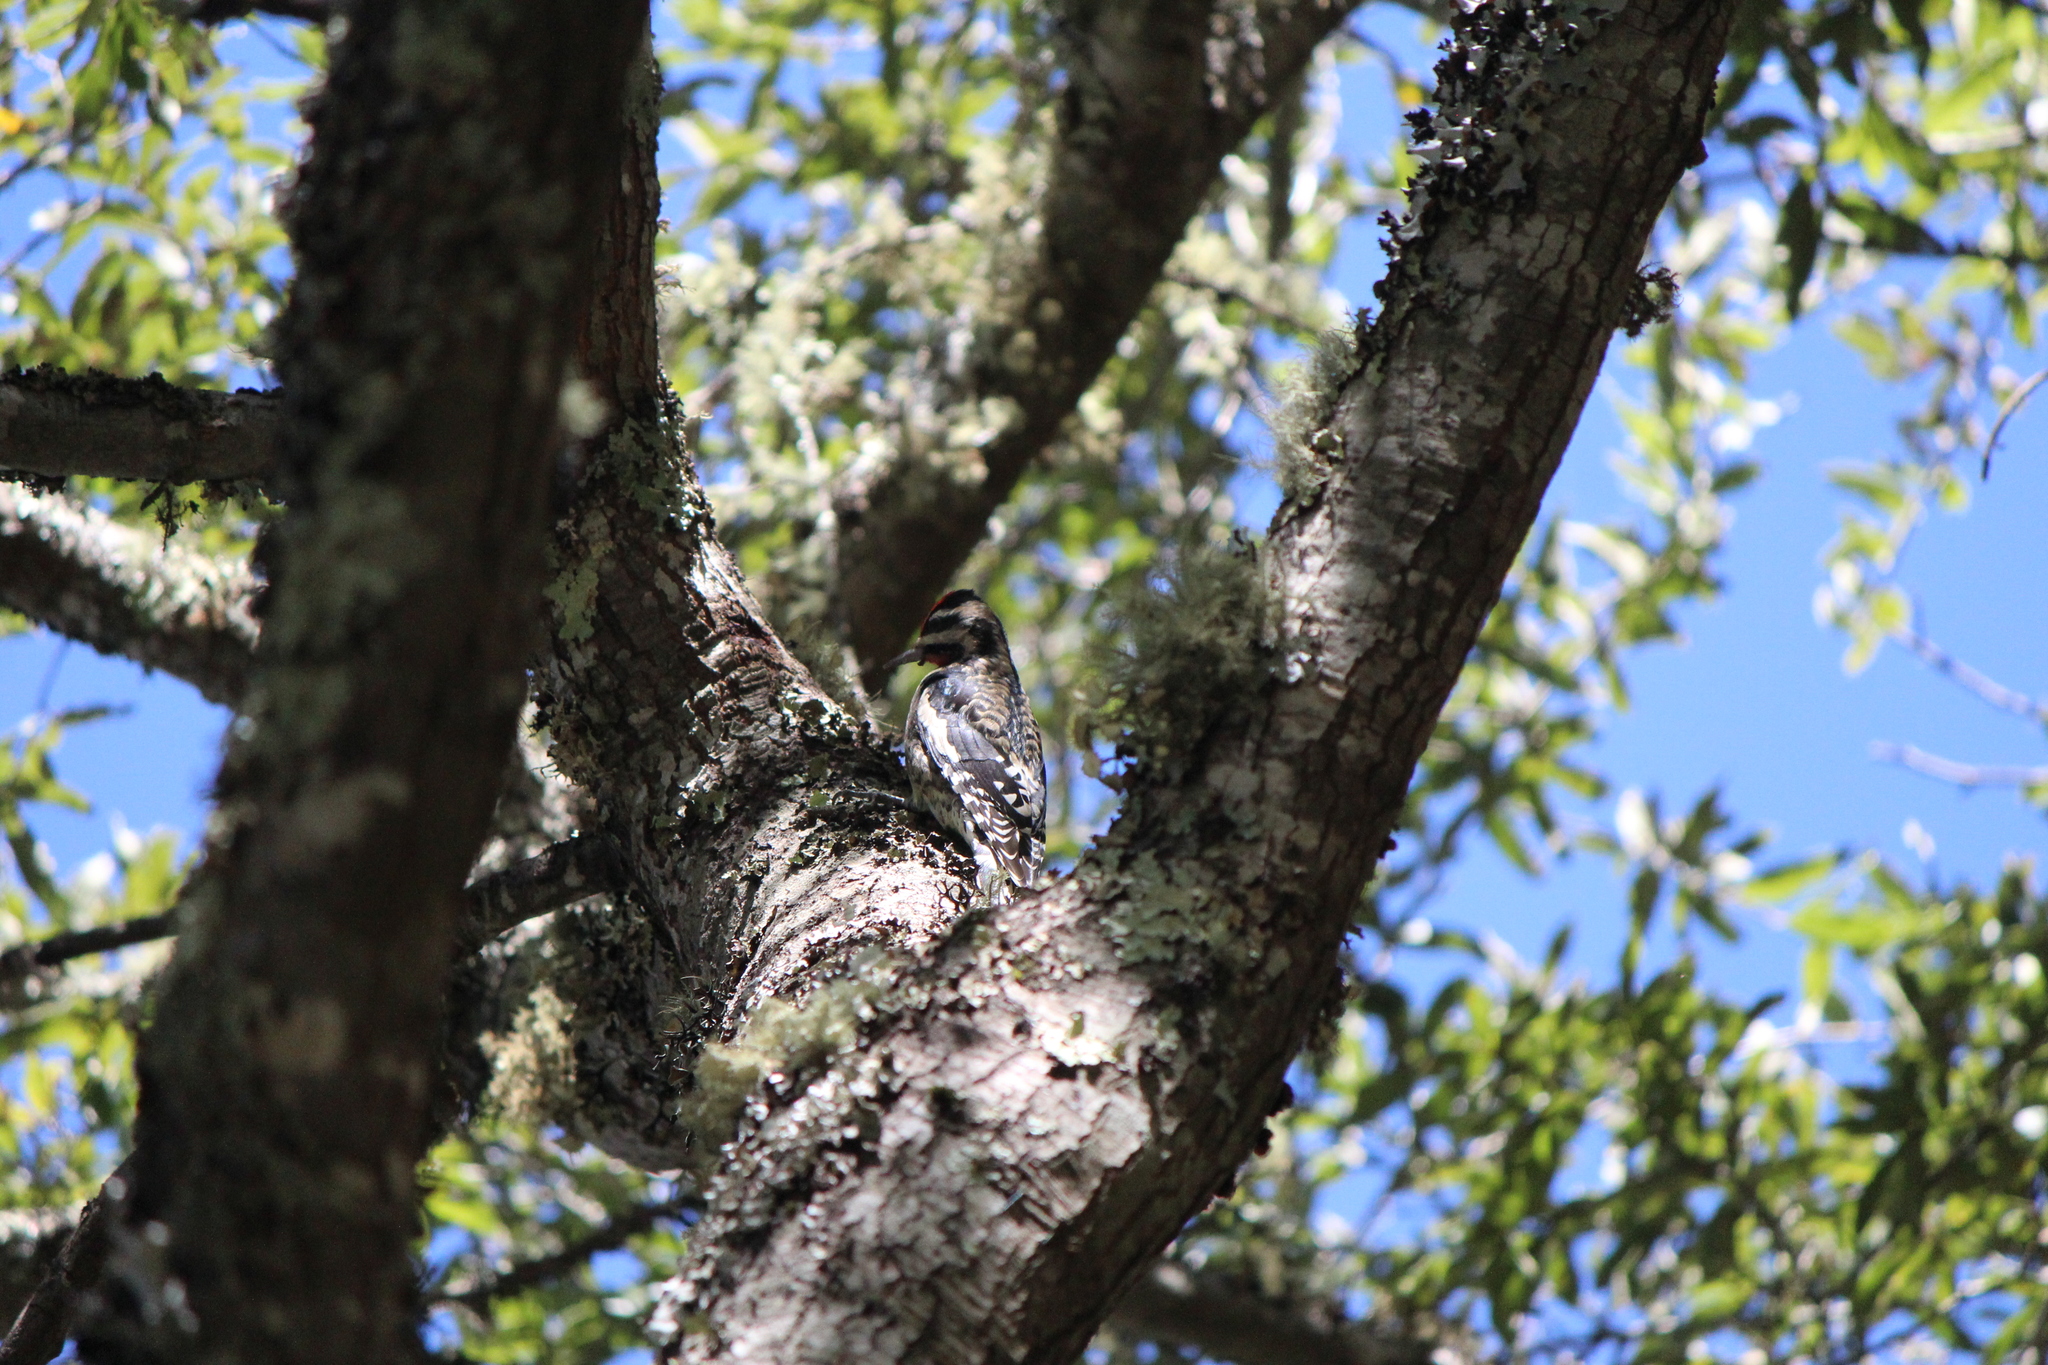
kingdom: Animalia
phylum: Chordata
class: Aves
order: Piciformes
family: Picidae
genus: Sphyrapicus
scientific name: Sphyrapicus varius
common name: Yellow-bellied sapsucker
